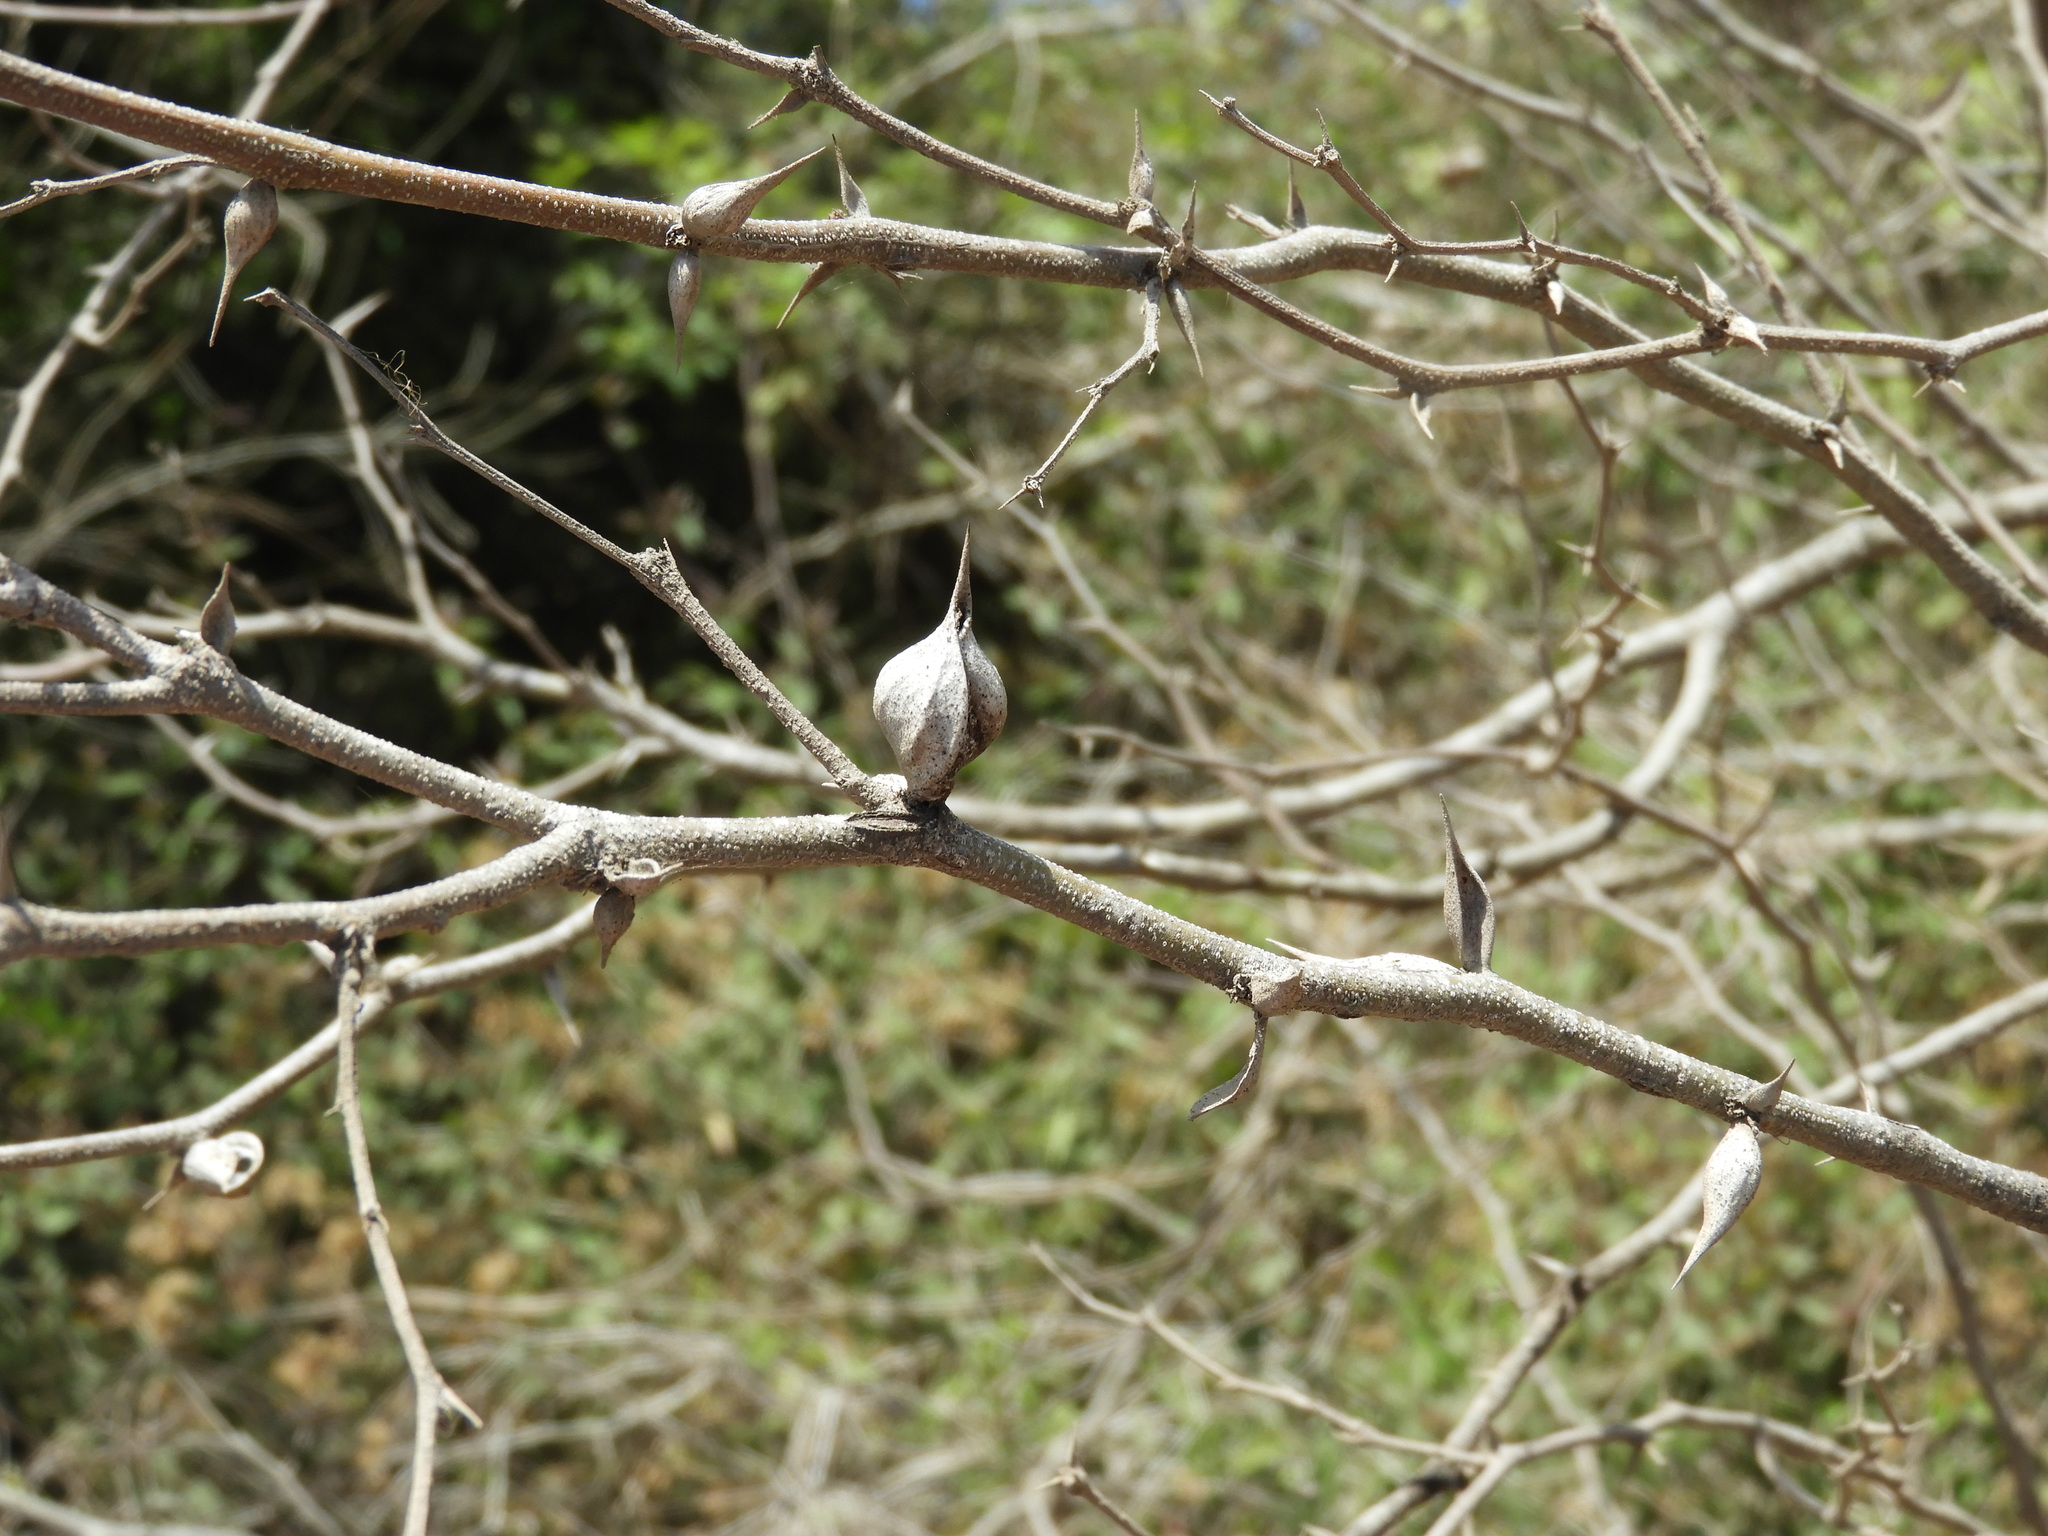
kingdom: Plantae
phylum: Tracheophyta
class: Magnoliopsida
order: Fabales
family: Fabaceae
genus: Vachellia
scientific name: Vachellia campechiana
